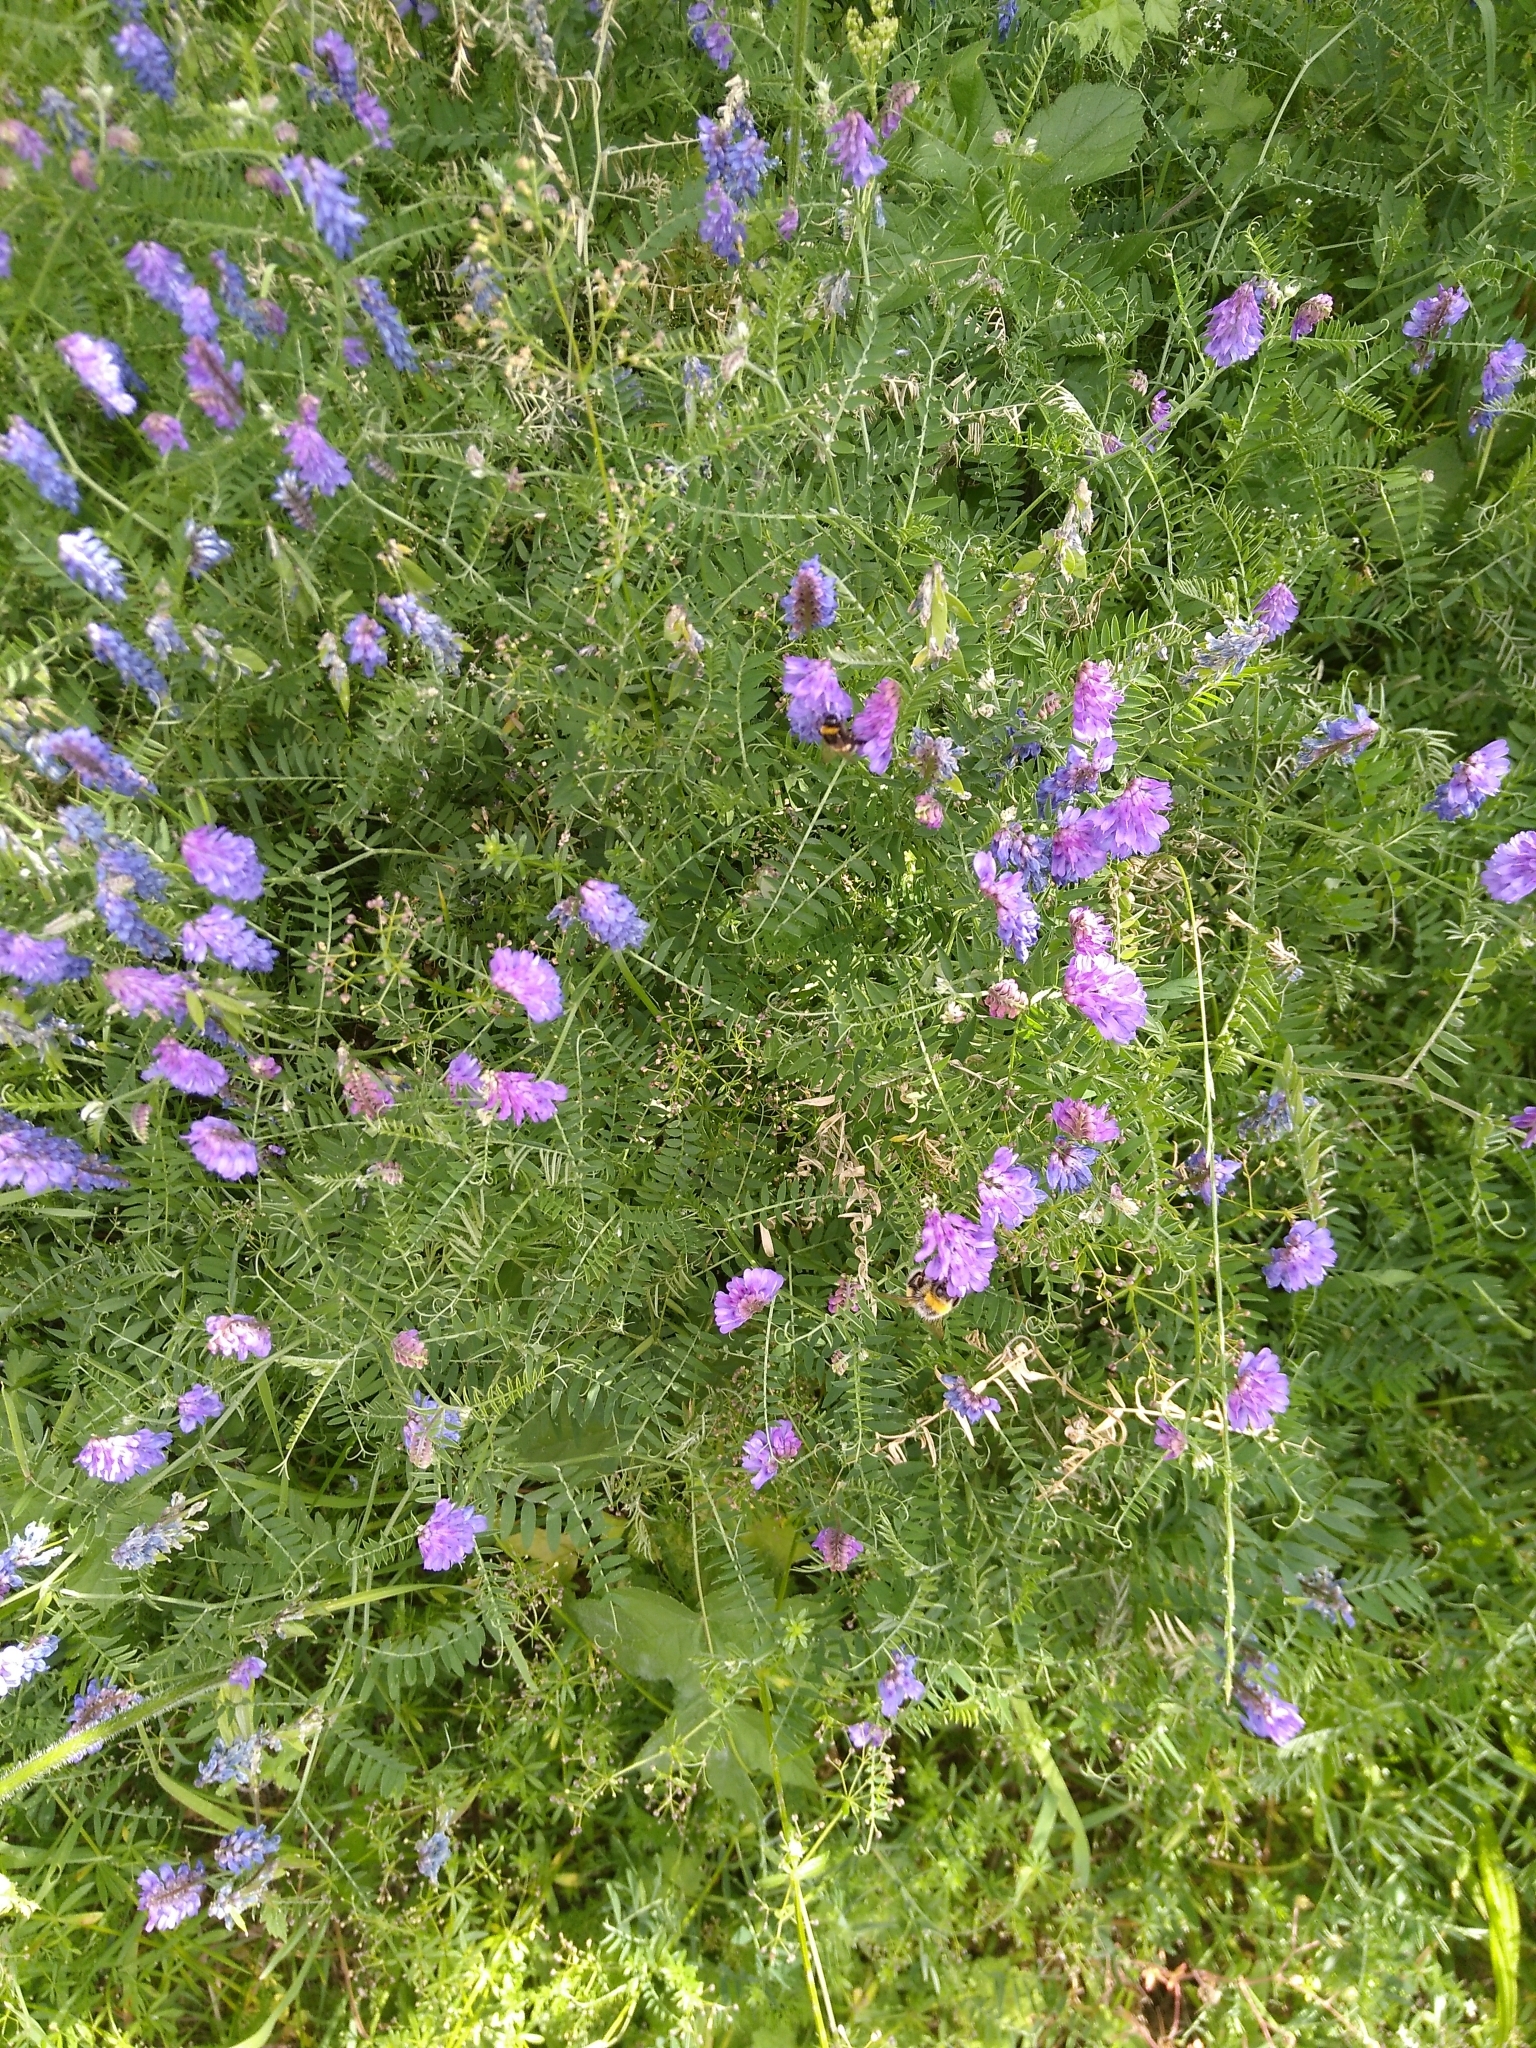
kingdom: Plantae
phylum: Tracheophyta
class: Magnoliopsida
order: Fabales
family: Fabaceae
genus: Vicia
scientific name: Vicia cracca
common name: Bird vetch
